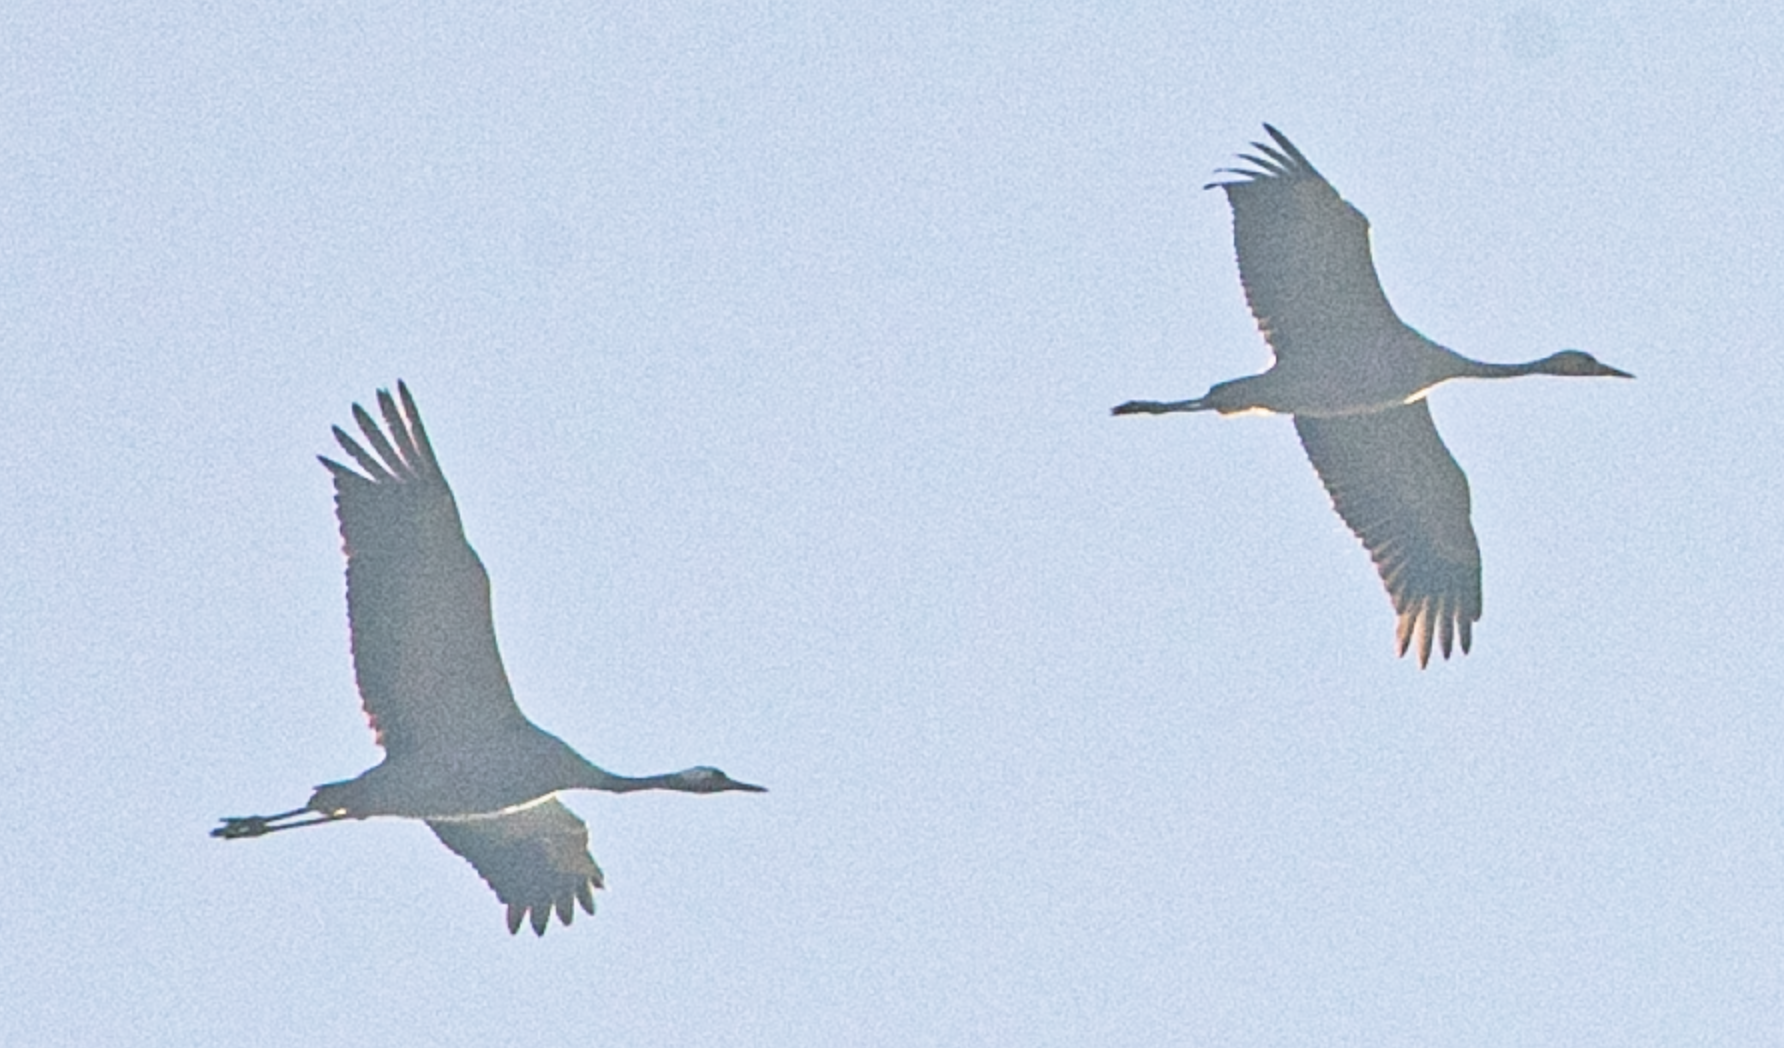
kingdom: Animalia
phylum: Chordata
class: Aves
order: Gruiformes
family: Gruidae
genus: Grus
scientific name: Grus grus
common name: Common crane
